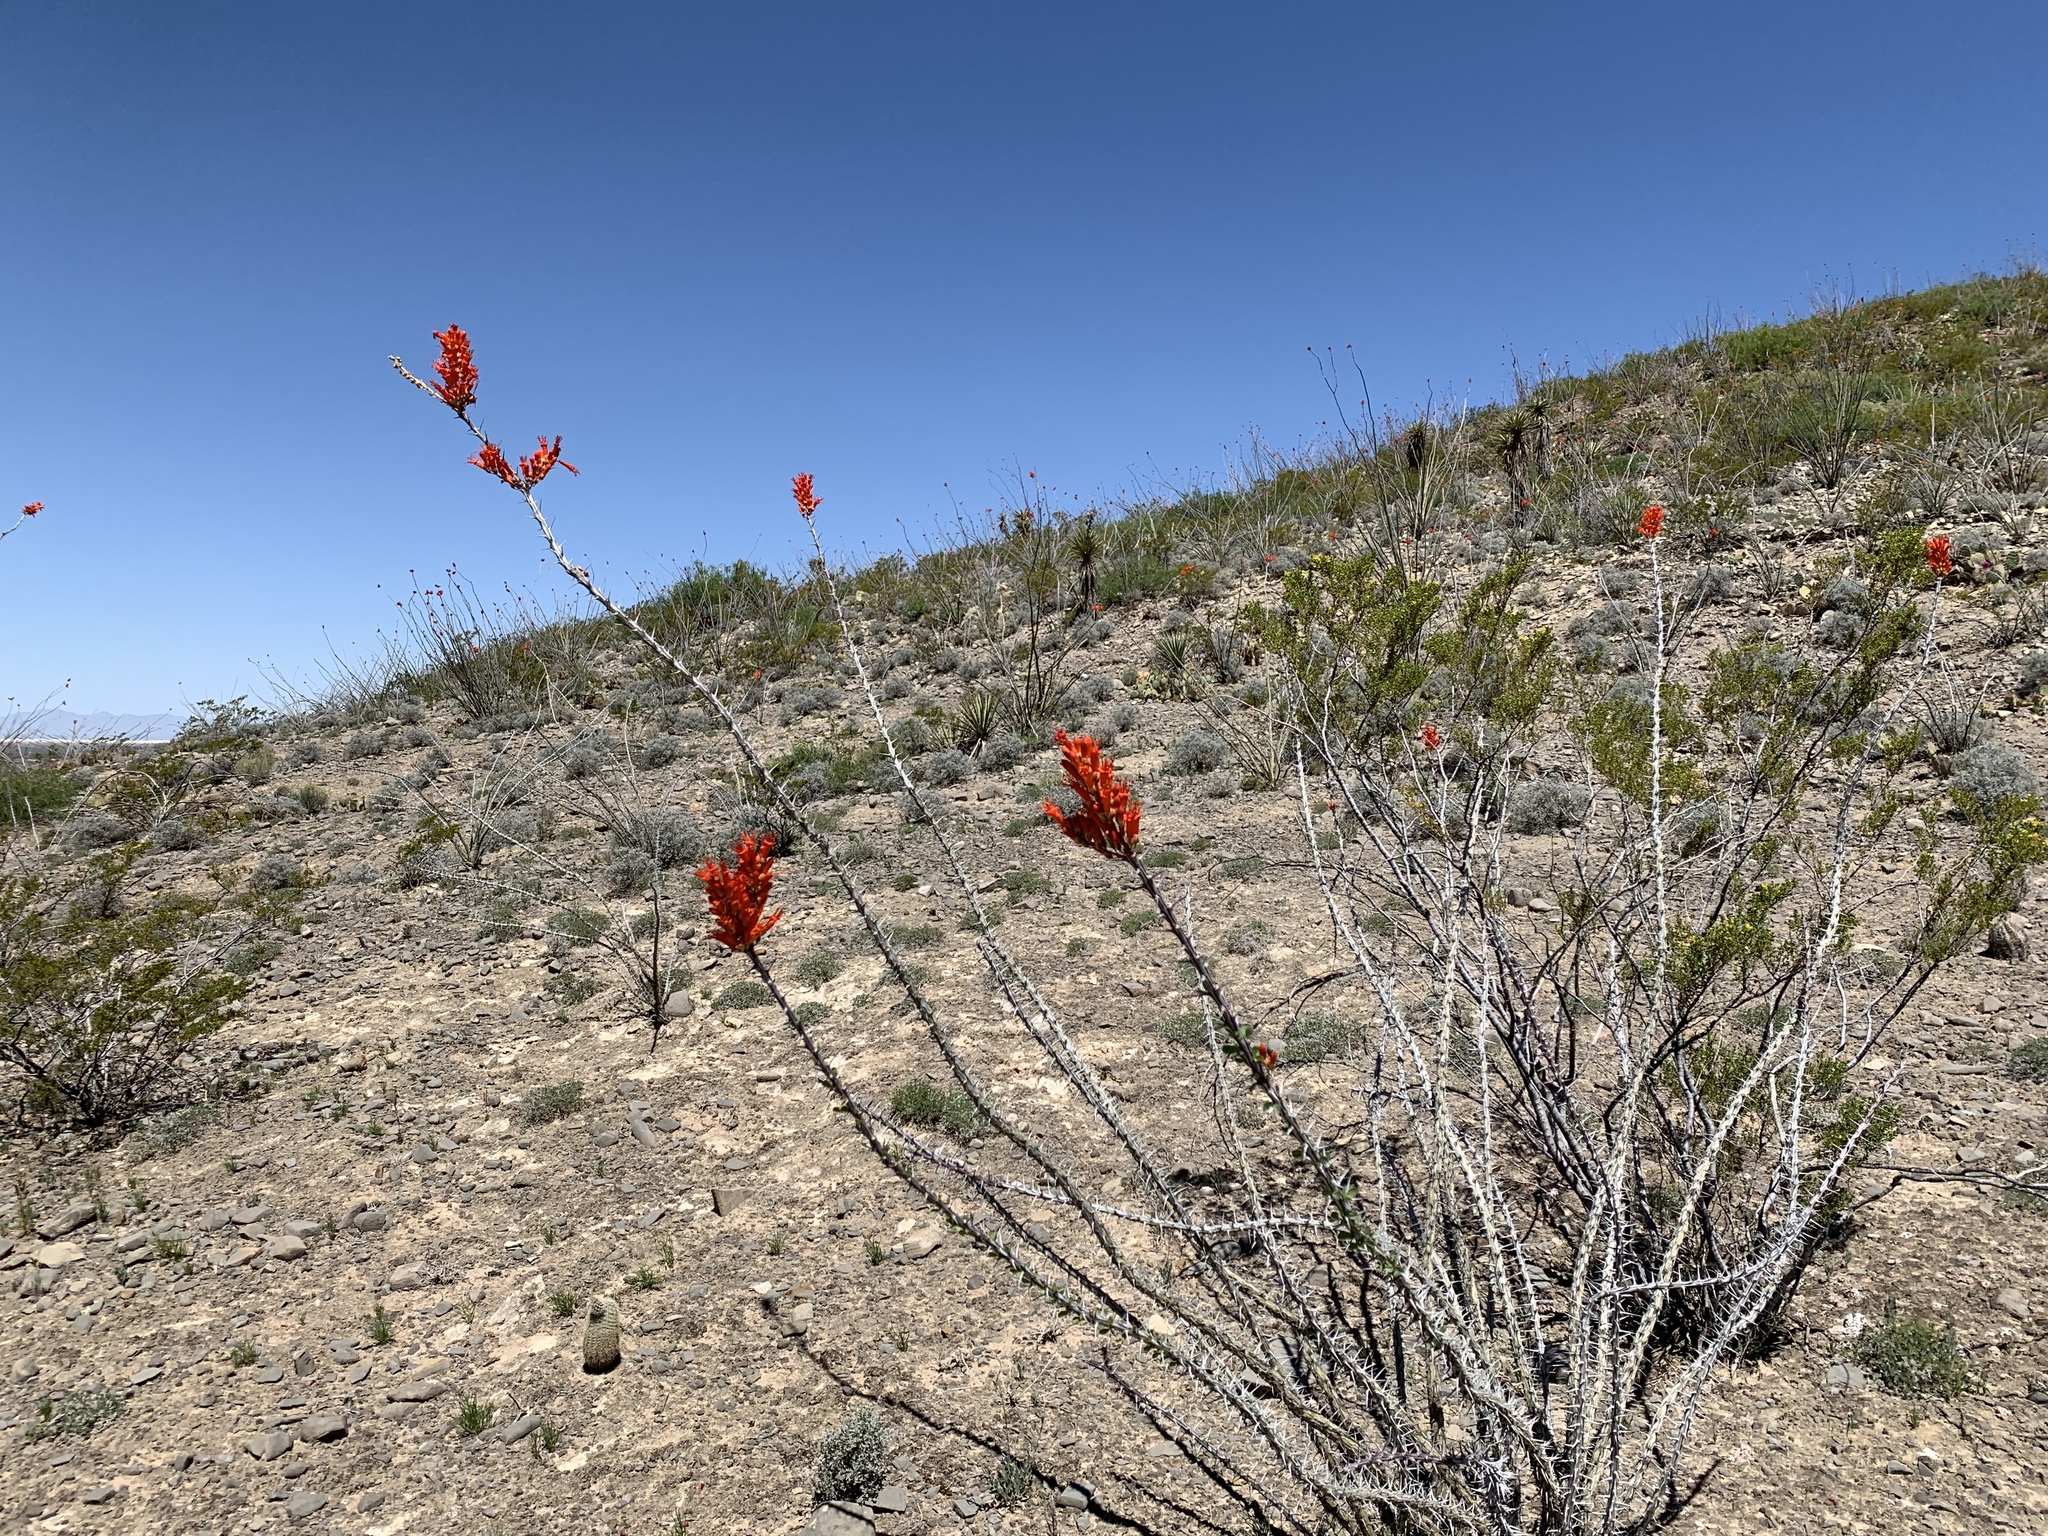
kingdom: Plantae
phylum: Tracheophyta
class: Magnoliopsida
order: Ericales
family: Fouquieriaceae
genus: Fouquieria
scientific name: Fouquieria splendens
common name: Vine-cactus
